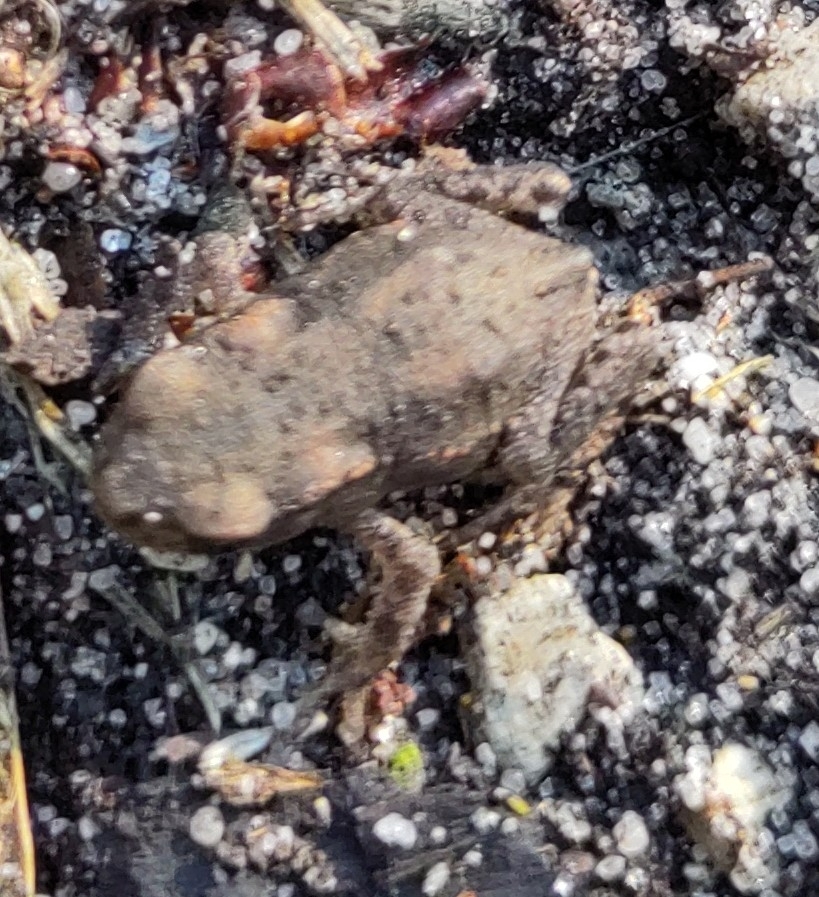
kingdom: Animalia
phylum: Chordata
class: Amphibia
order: Anura
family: Bufonidae
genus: Bufo
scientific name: Bufo bufo
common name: Common toad
